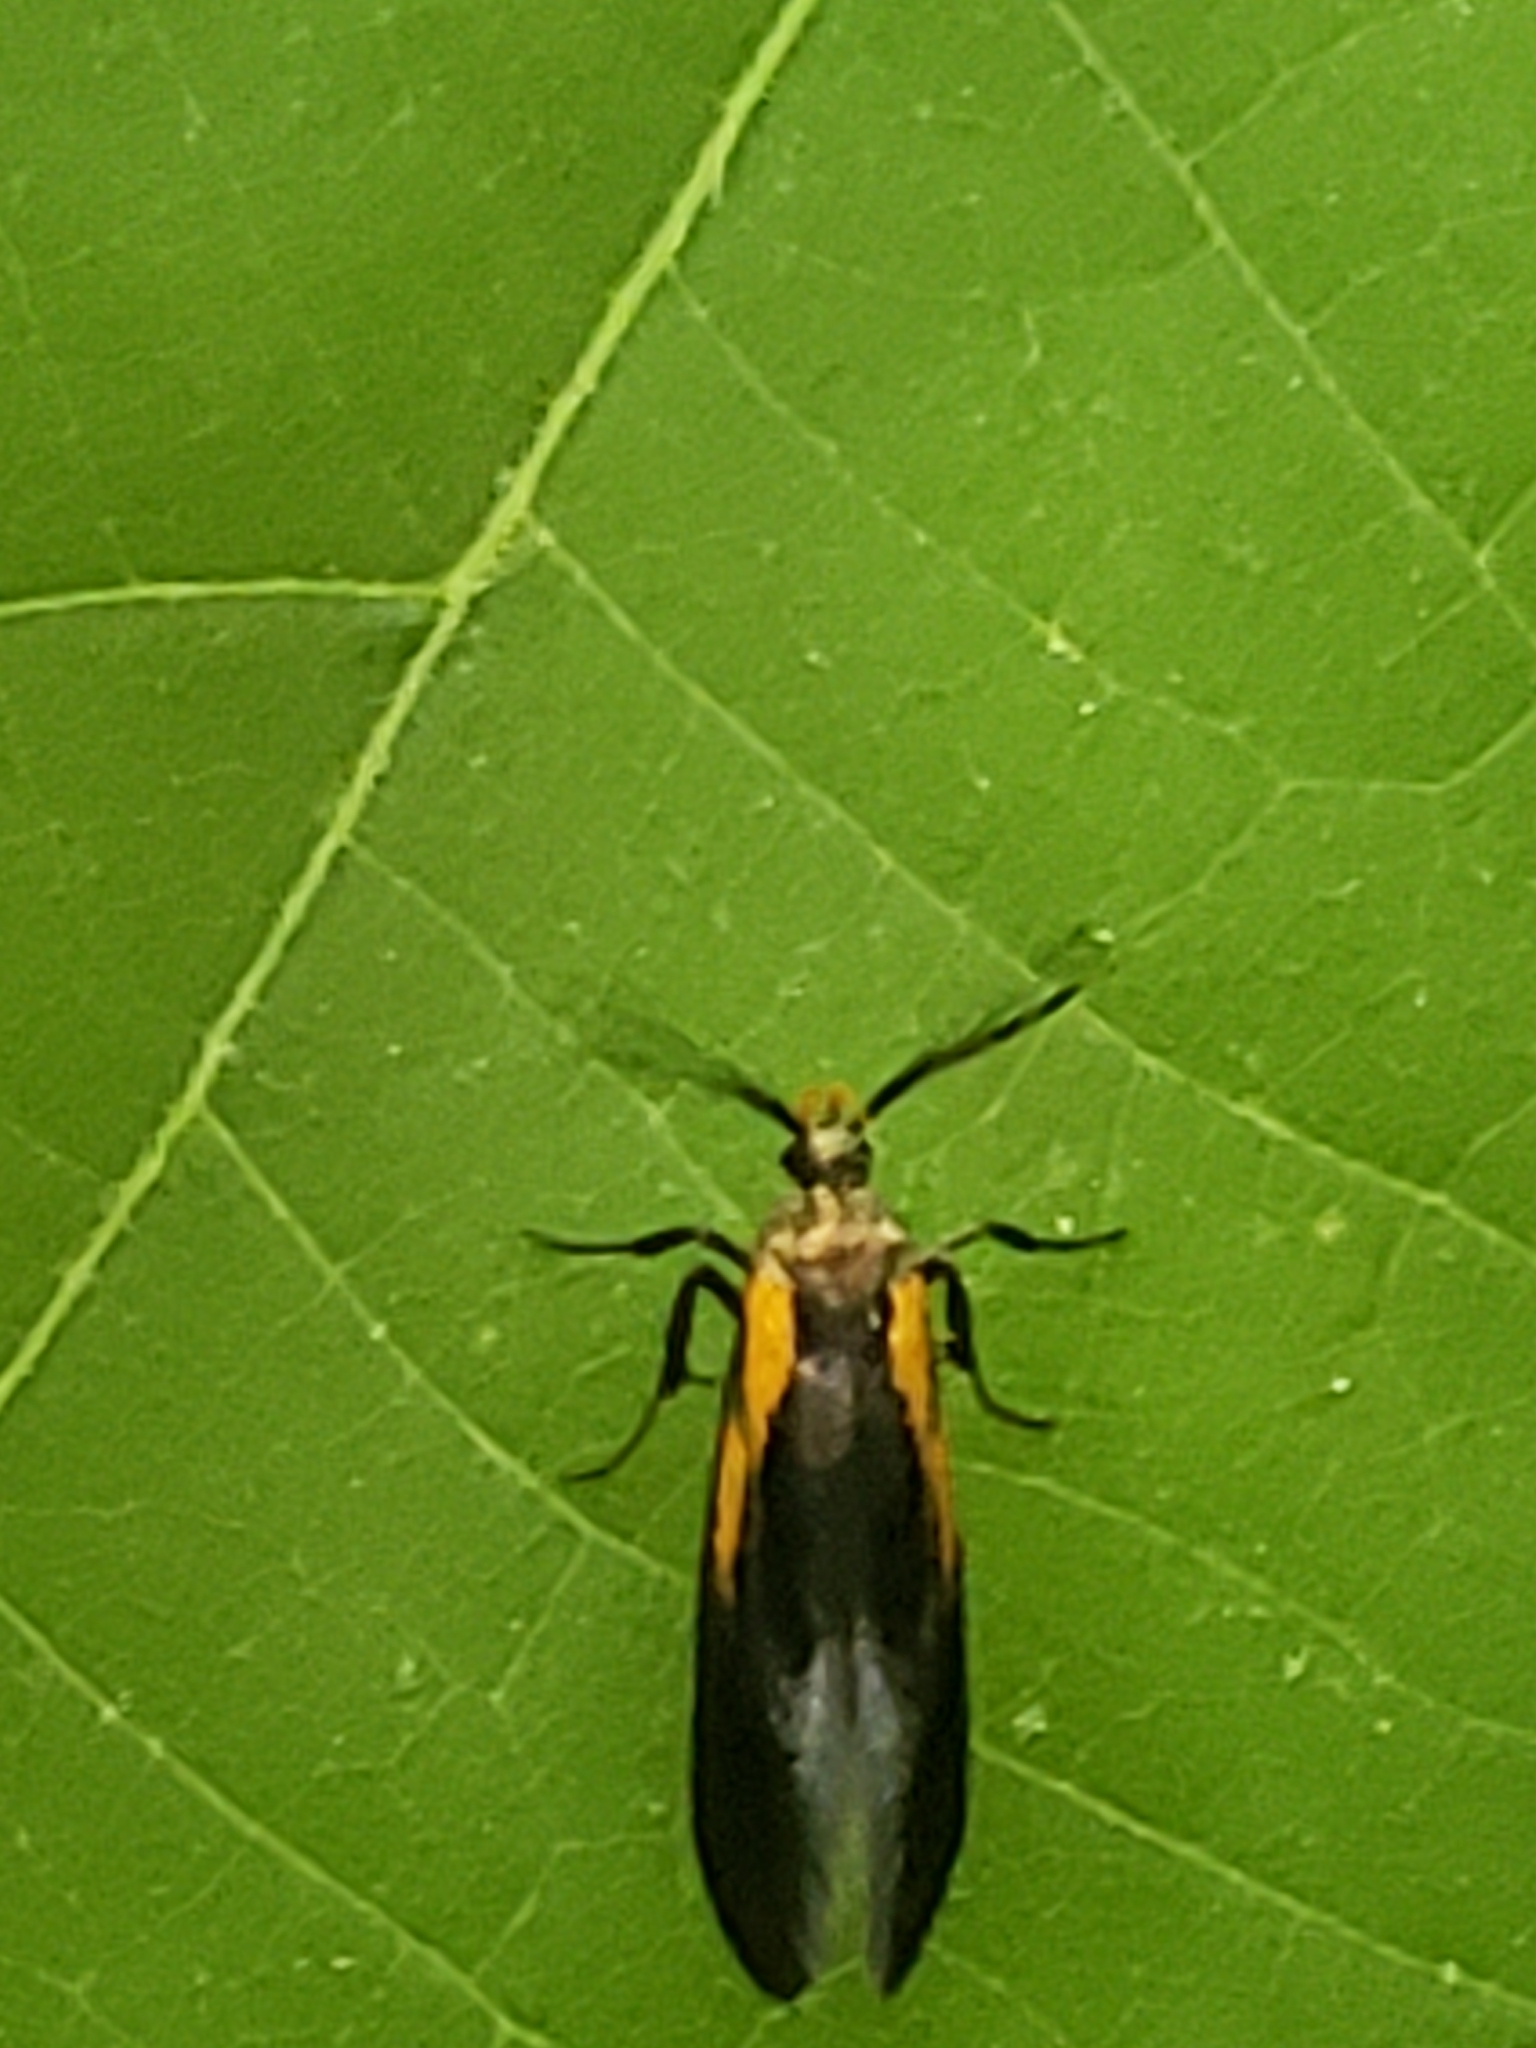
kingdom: Animalia
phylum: Arthropoda
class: Insecta
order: Lepidoptera
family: Oecophoridae
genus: Mathildana
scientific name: Mathildana newmanella
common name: Newman's mathildana moth
